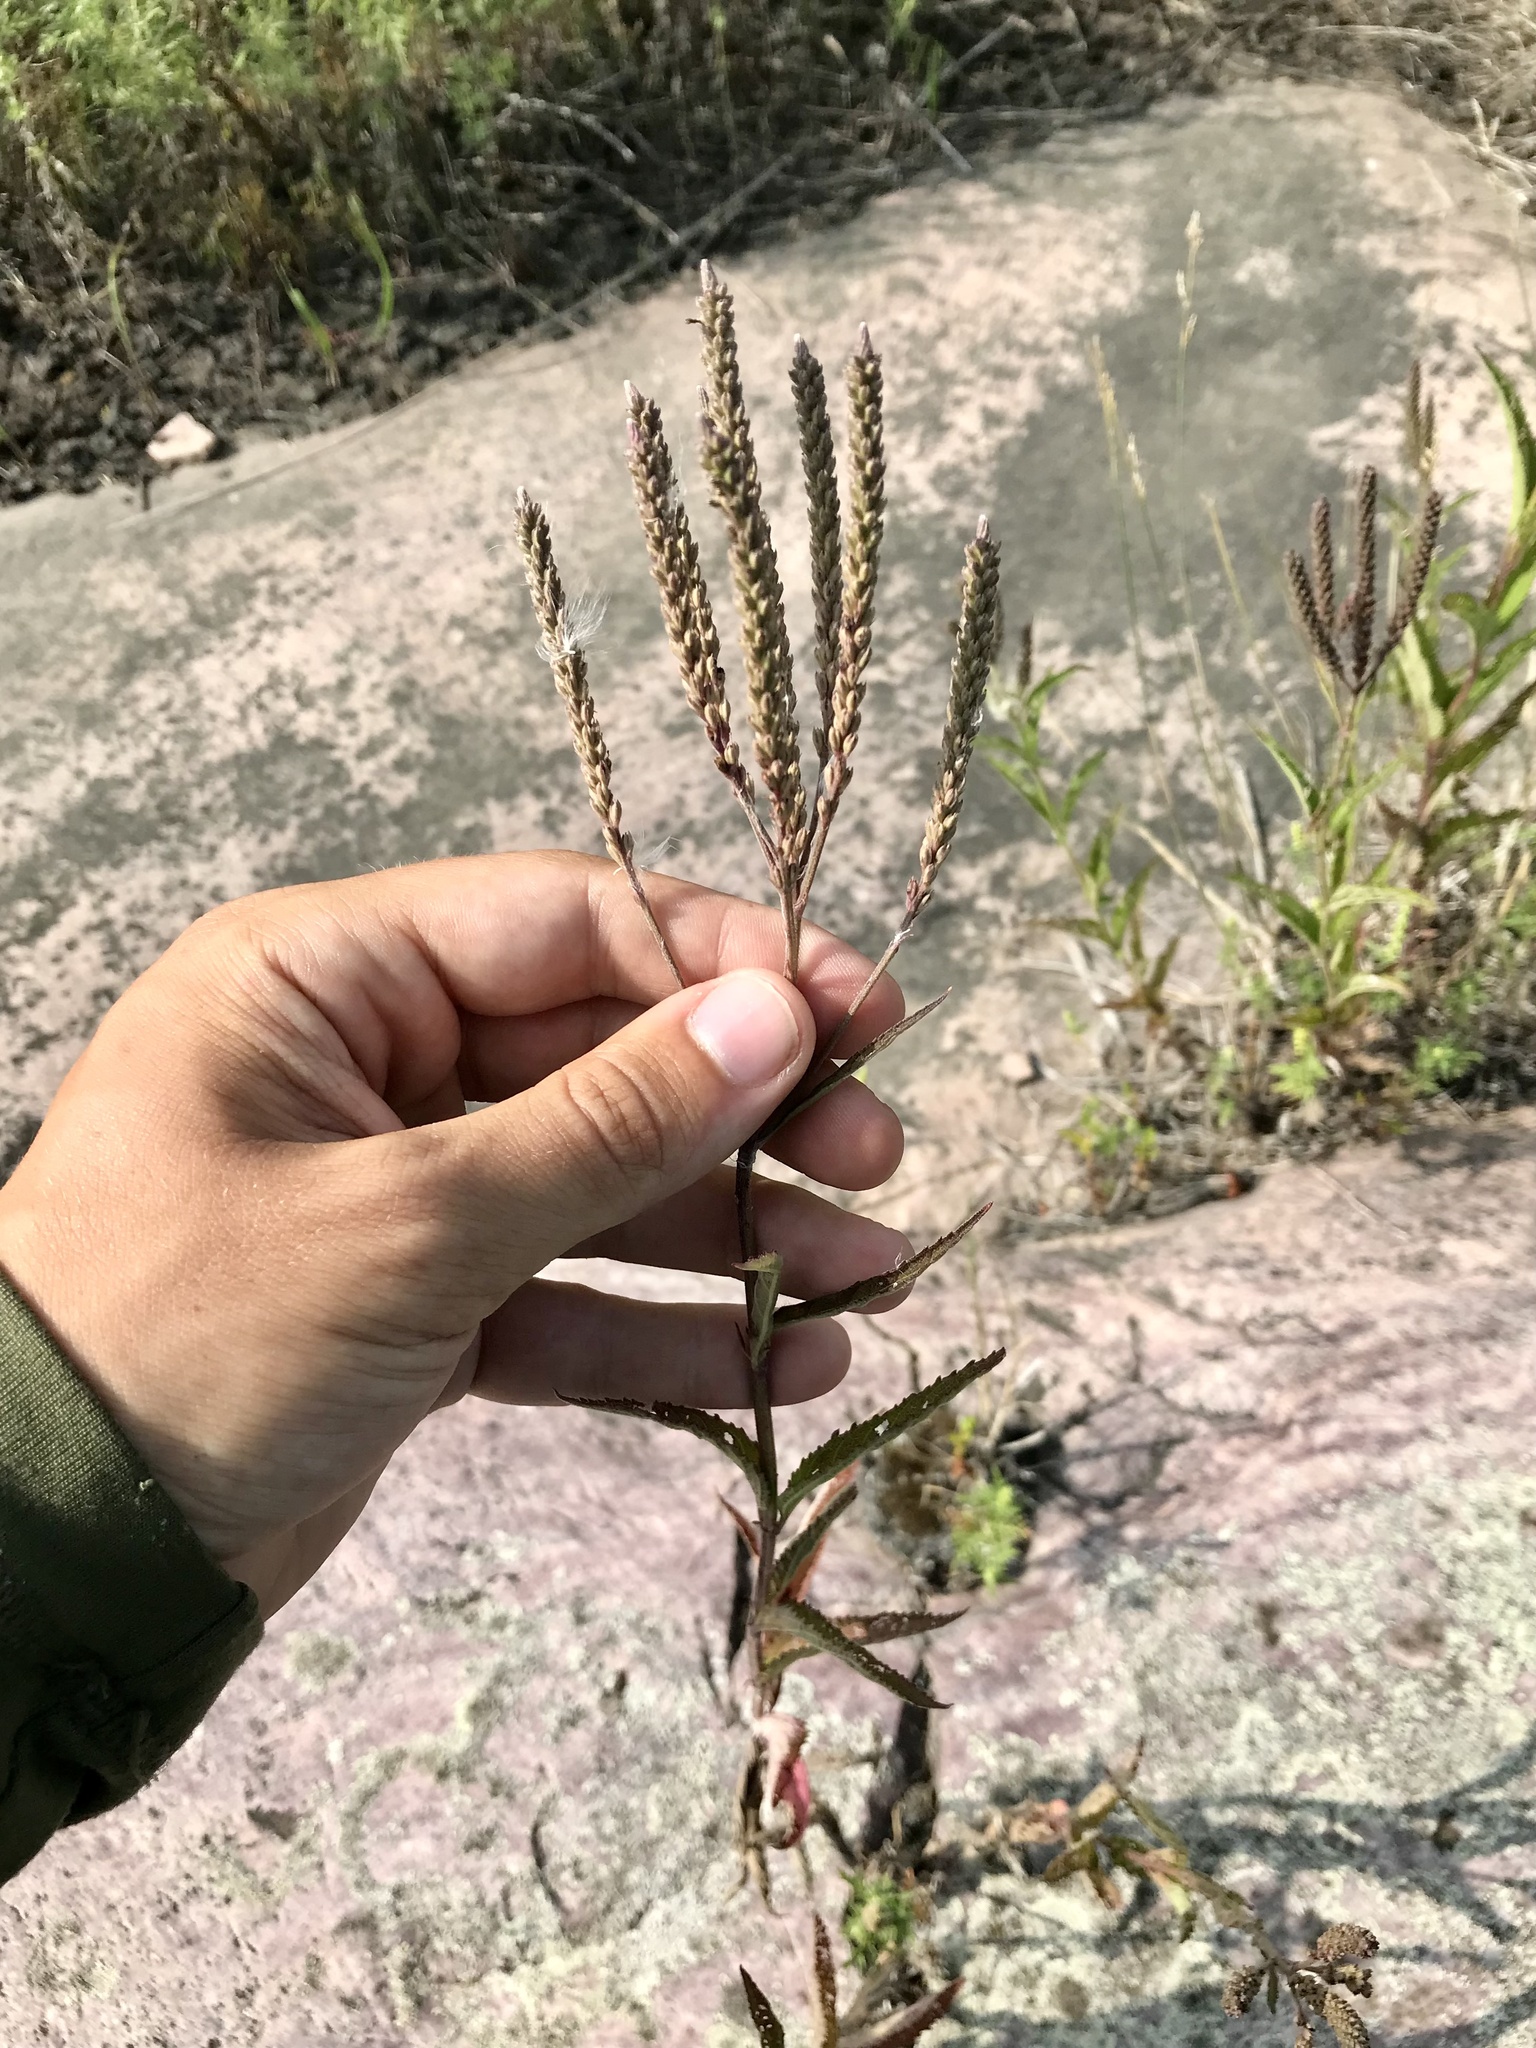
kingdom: Plantae
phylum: Tracheophyta
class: Magnoliopsida
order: Lamiales
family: Verbenaceae
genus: Verbena
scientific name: Verbena hastata
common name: American blue vervain
